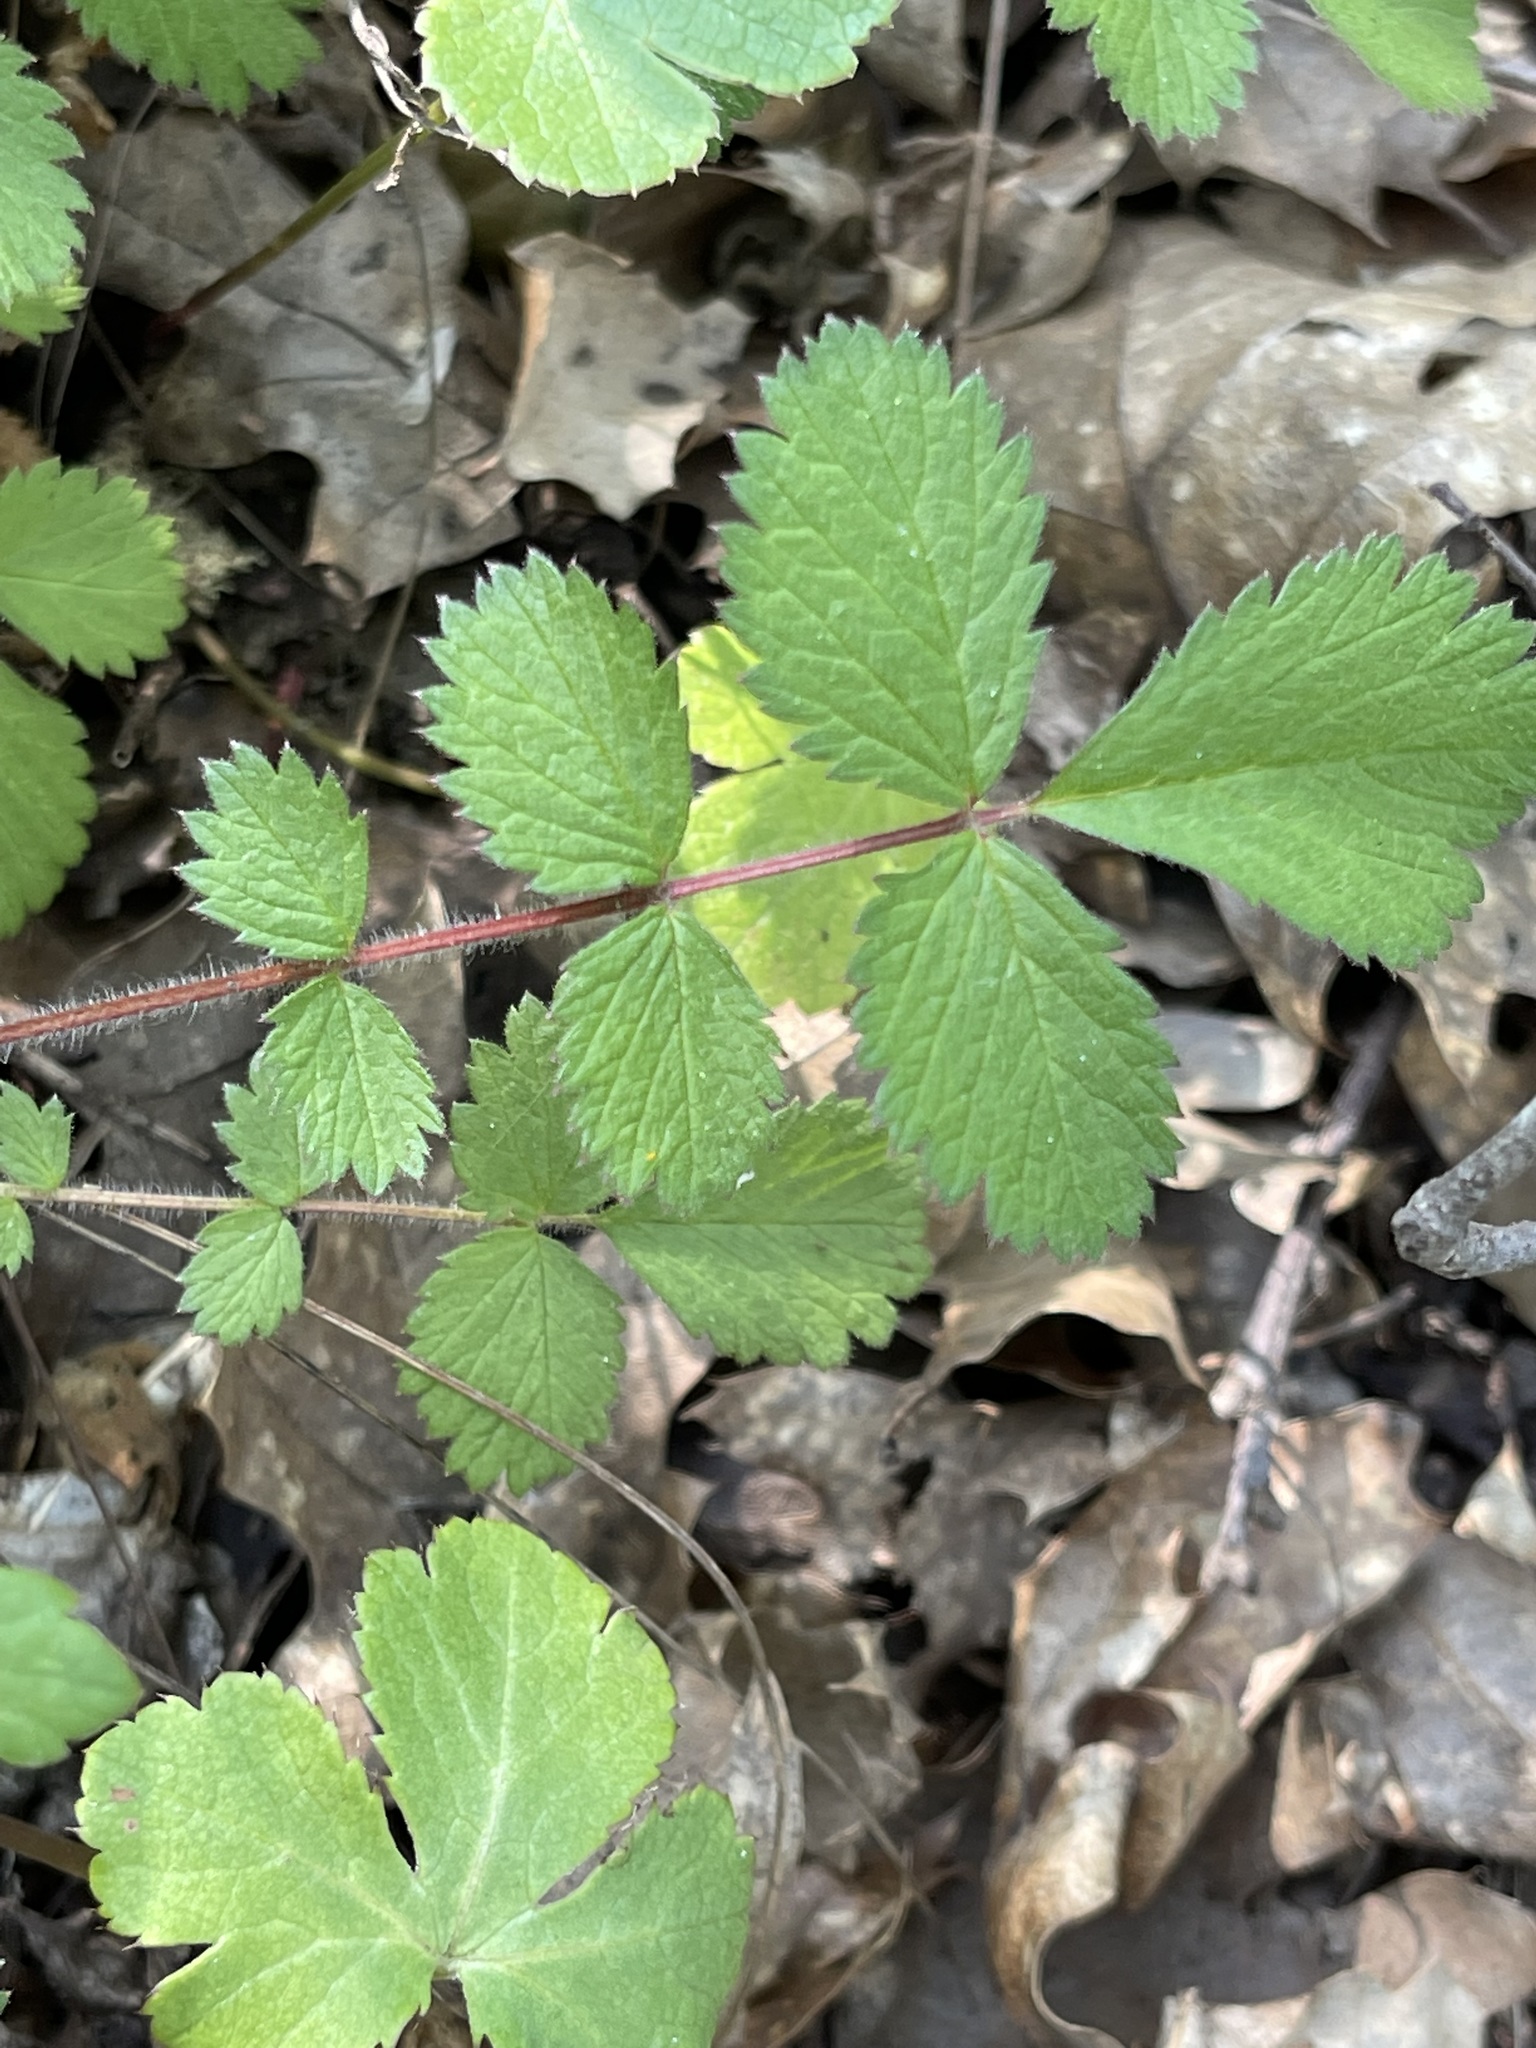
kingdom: Plantae
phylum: Tracheophyta
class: Magnoliopsida
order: Rosales
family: Rosaceae
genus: Drymocallis
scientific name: Drymocallis glandulosa
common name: Sticky cinquefoil
